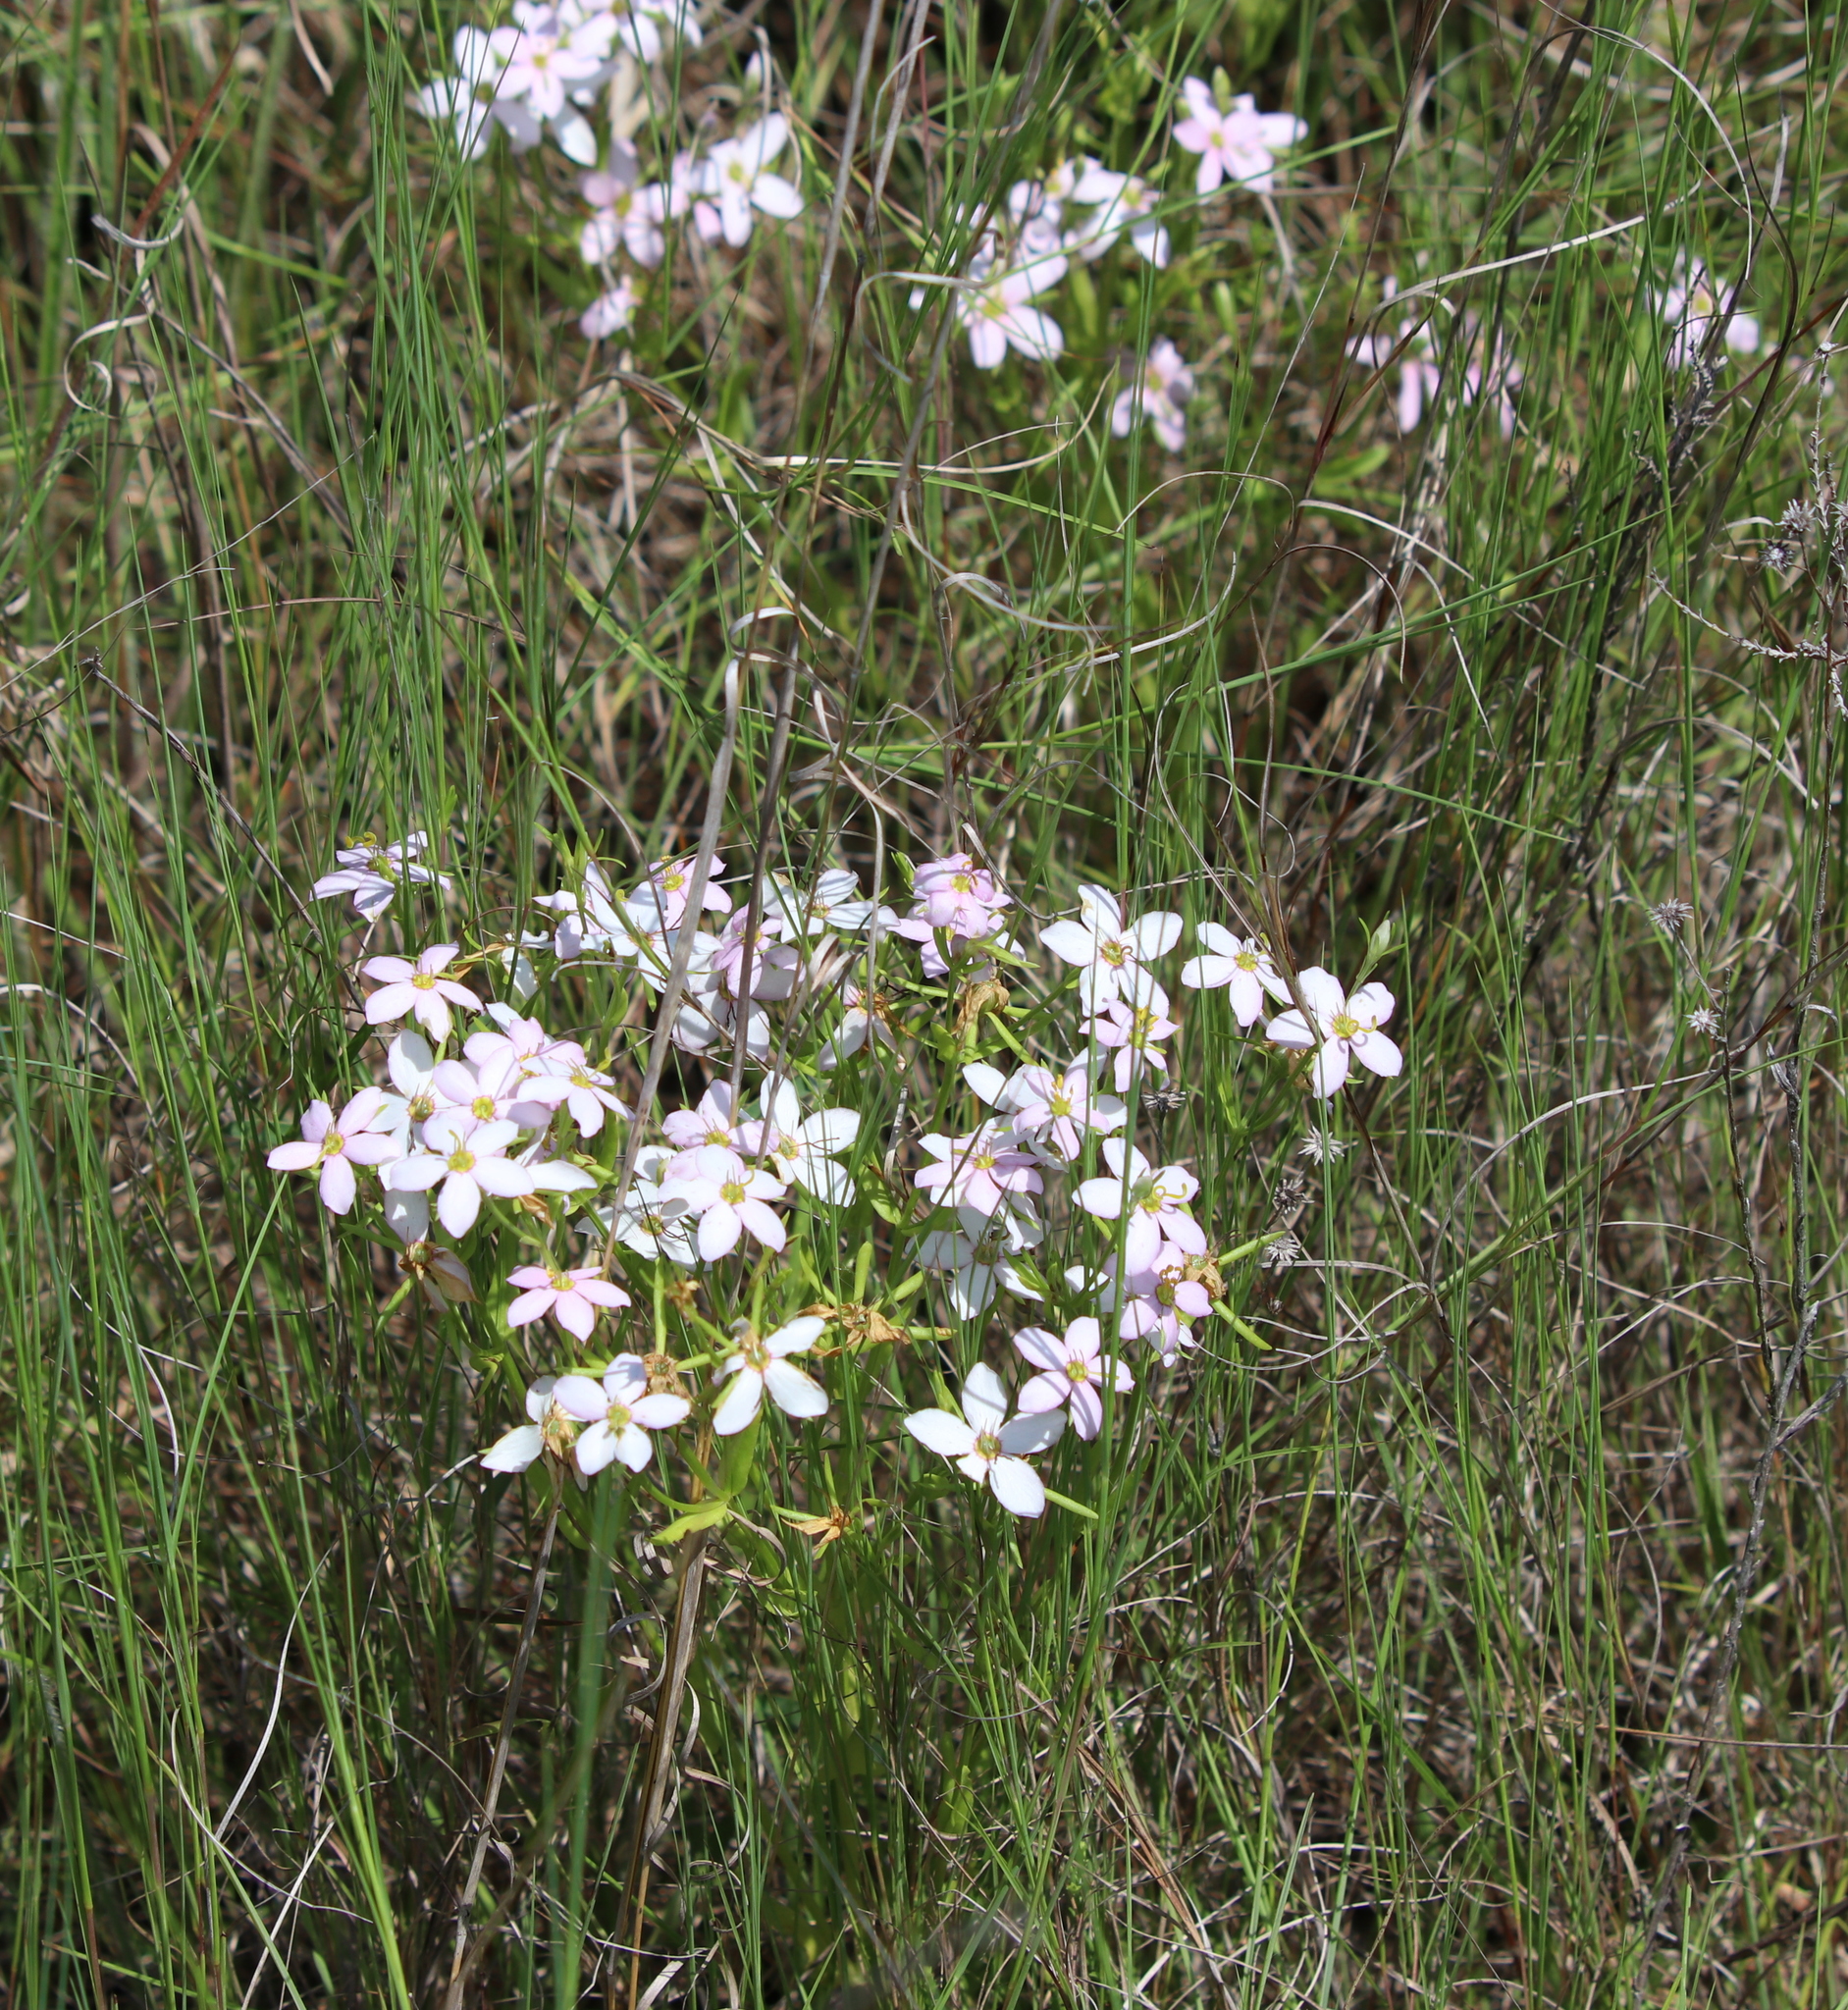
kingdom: Plantae
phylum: Tracheophyta
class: Magnoliopsida
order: Gentianales
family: Gentianaceae
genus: Sabatia
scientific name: Sabatia brachiata
